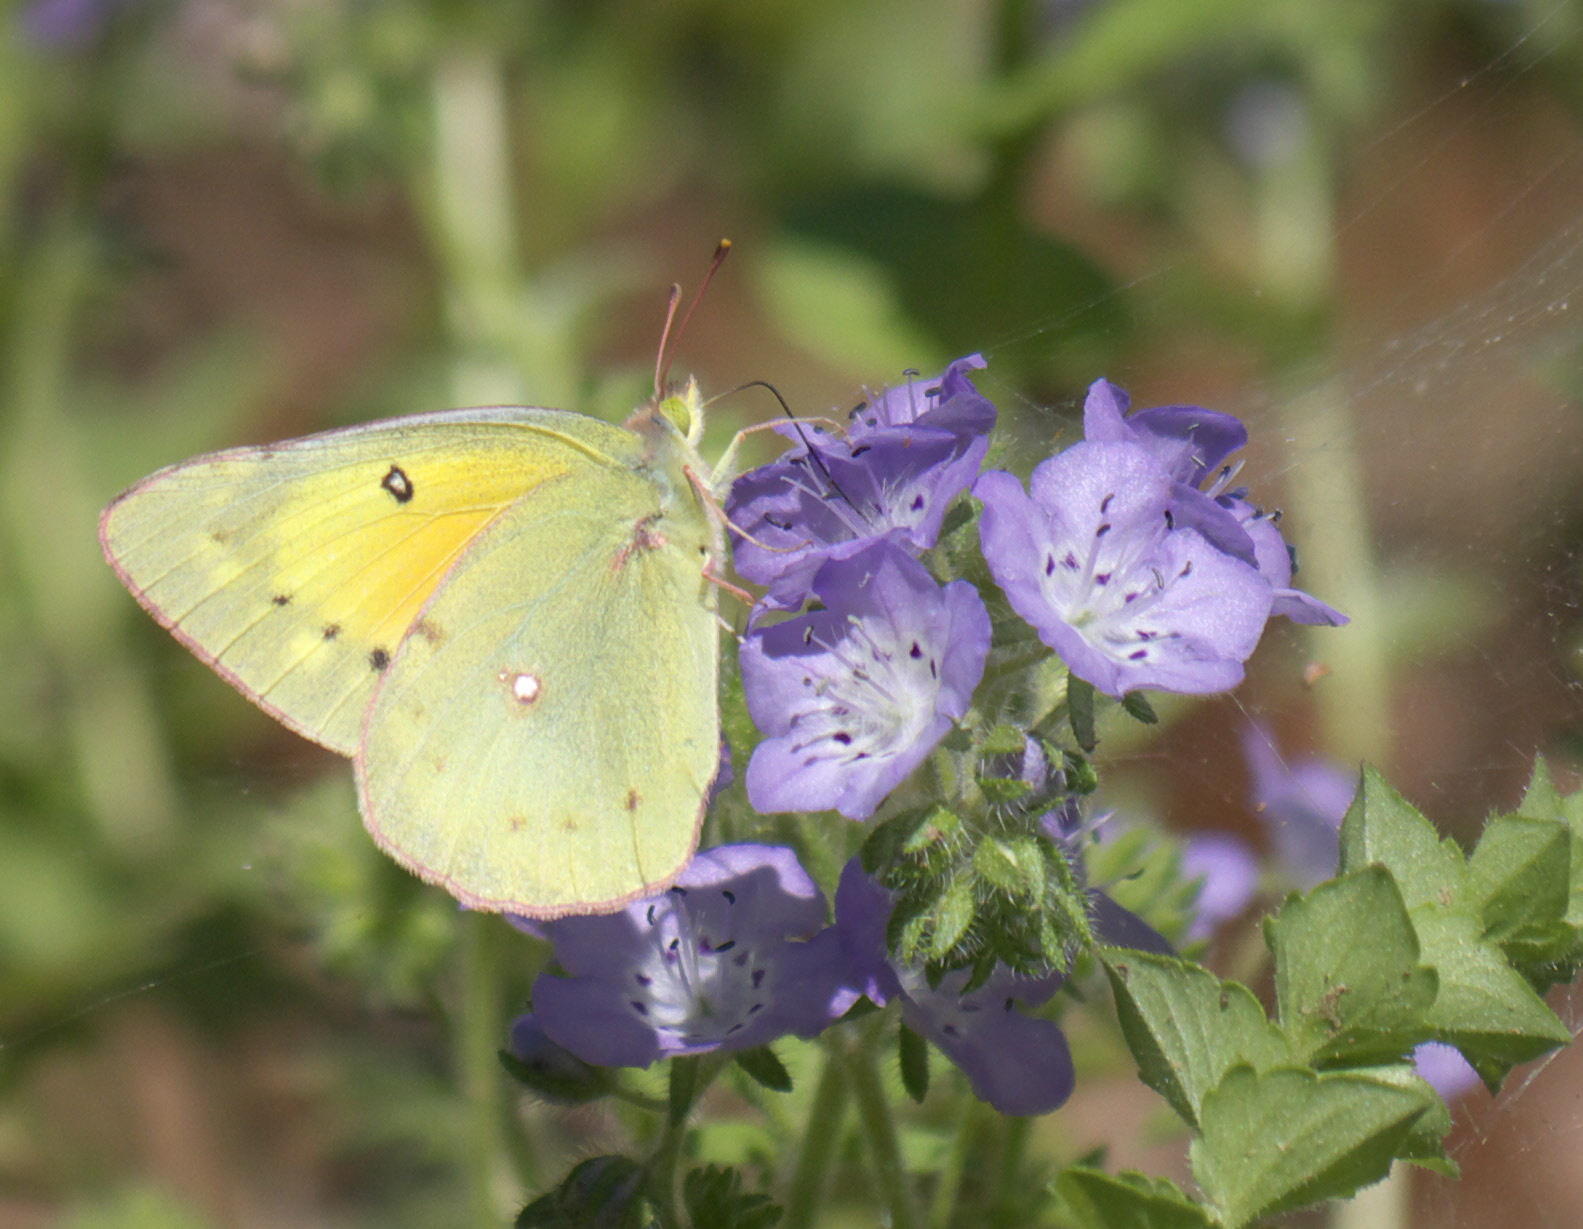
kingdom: Animalia
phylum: Arthropoda
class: Insecta
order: Lepidoptera
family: Pieridae
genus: Colias
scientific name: Colias eurytheme
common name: Alfalfa butterfly
